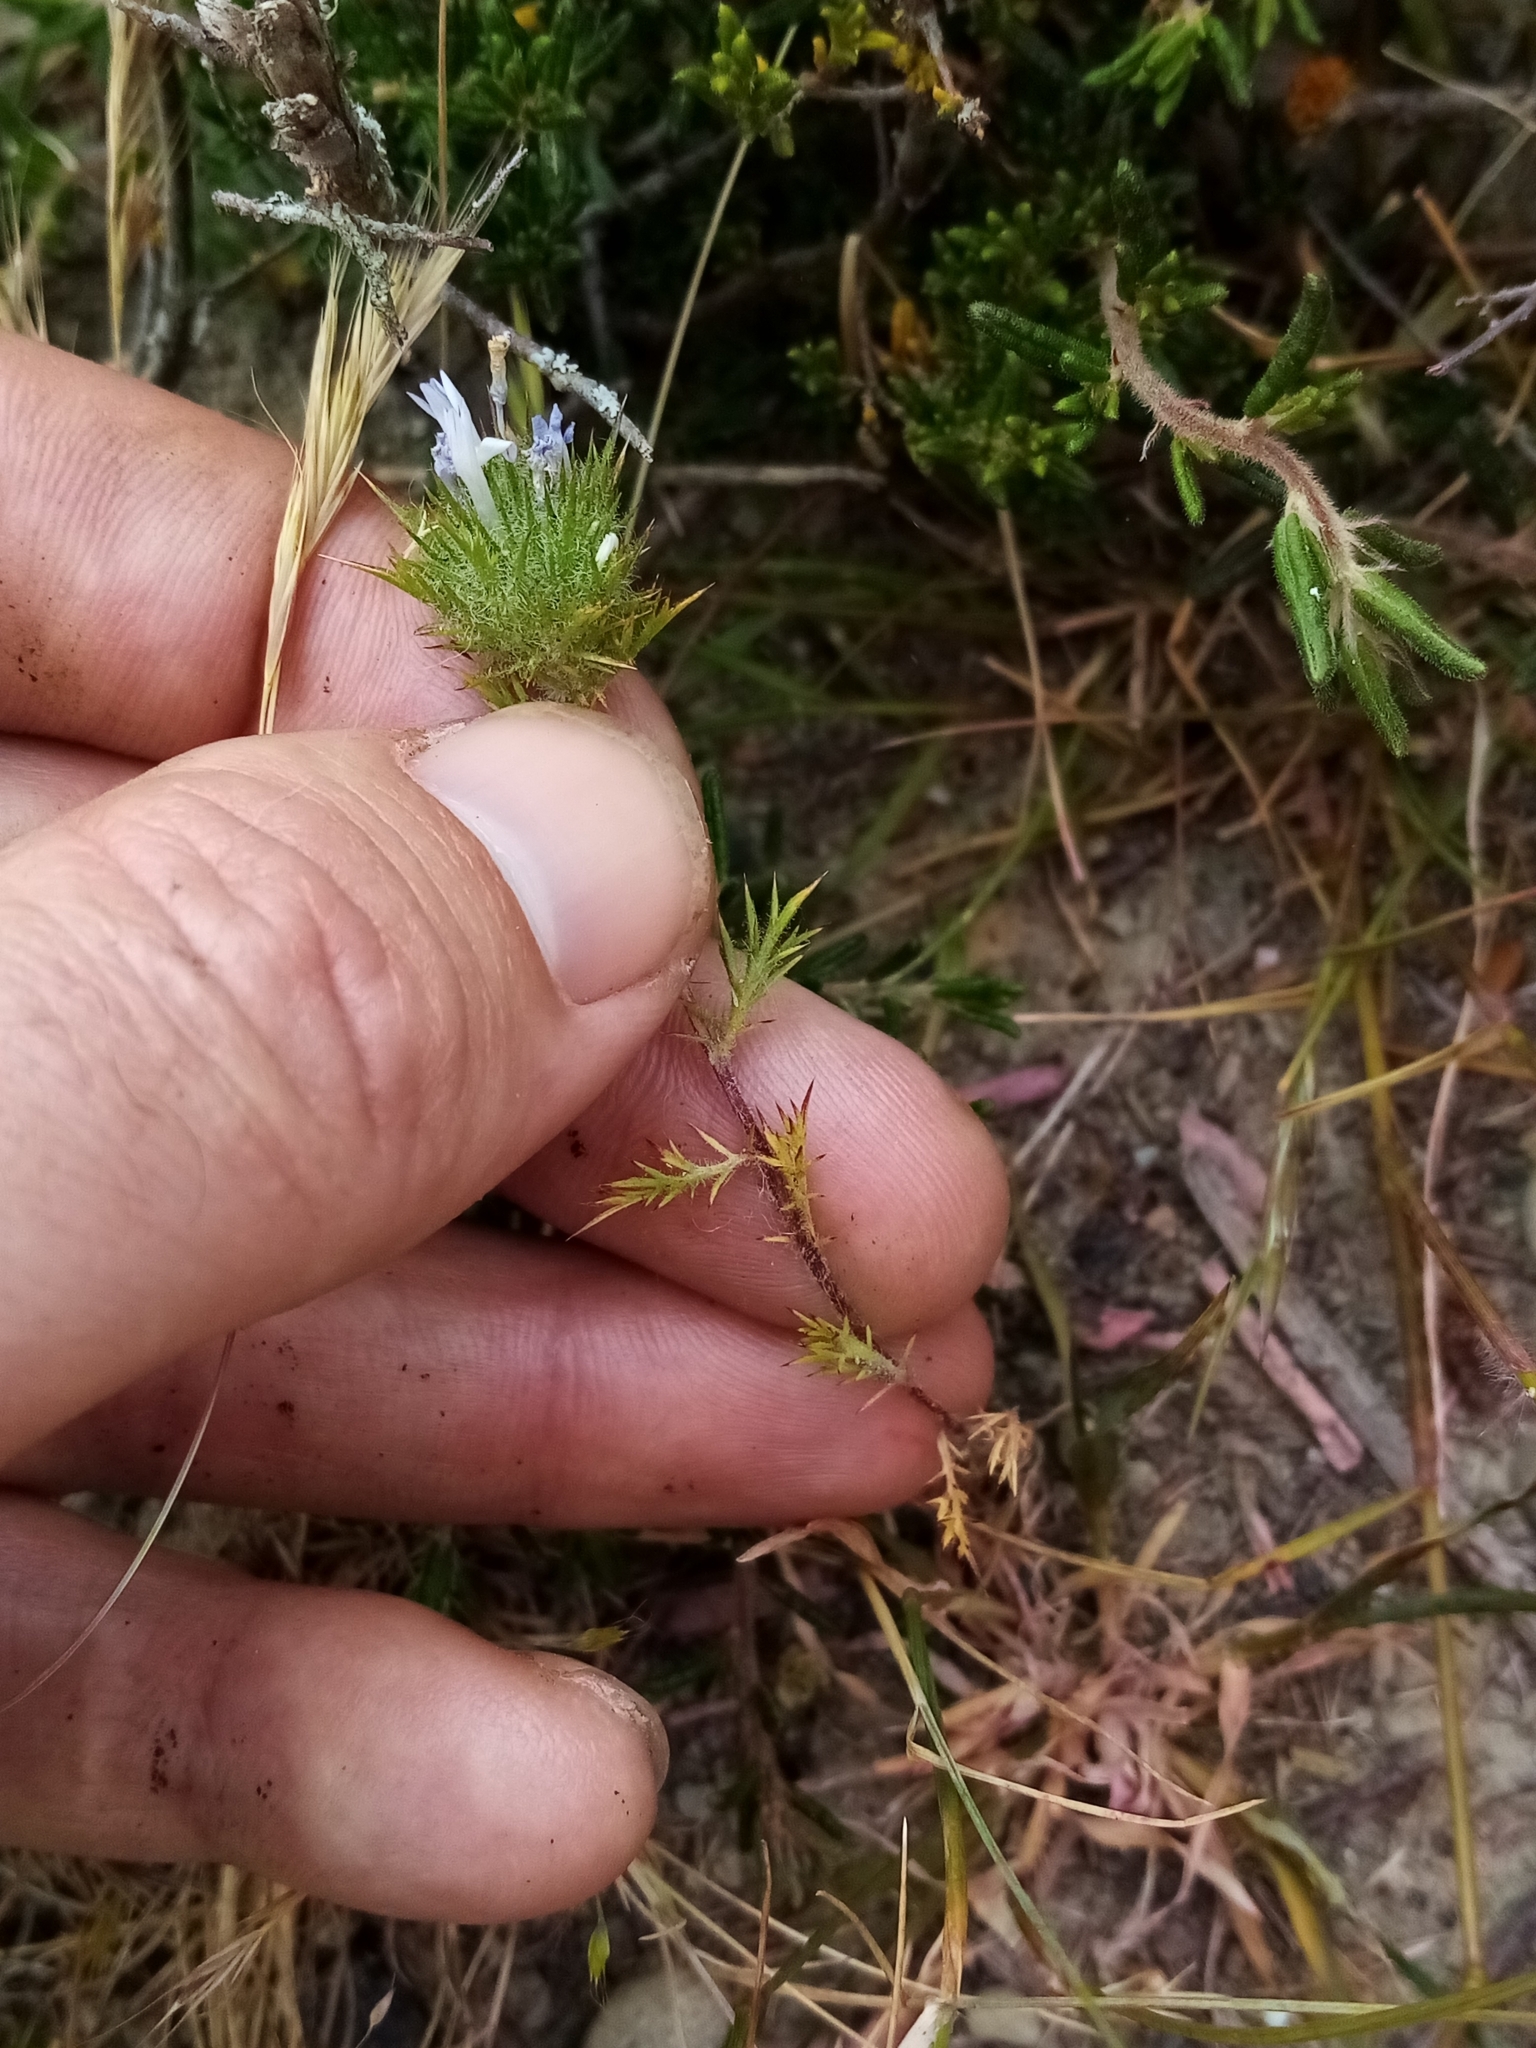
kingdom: Plantae
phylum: Tracheophyta
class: Magnoliopsida
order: Ericales
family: Polemoniaceae
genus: Navarretia
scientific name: Navarretia squarrosa
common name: Skunkweed
